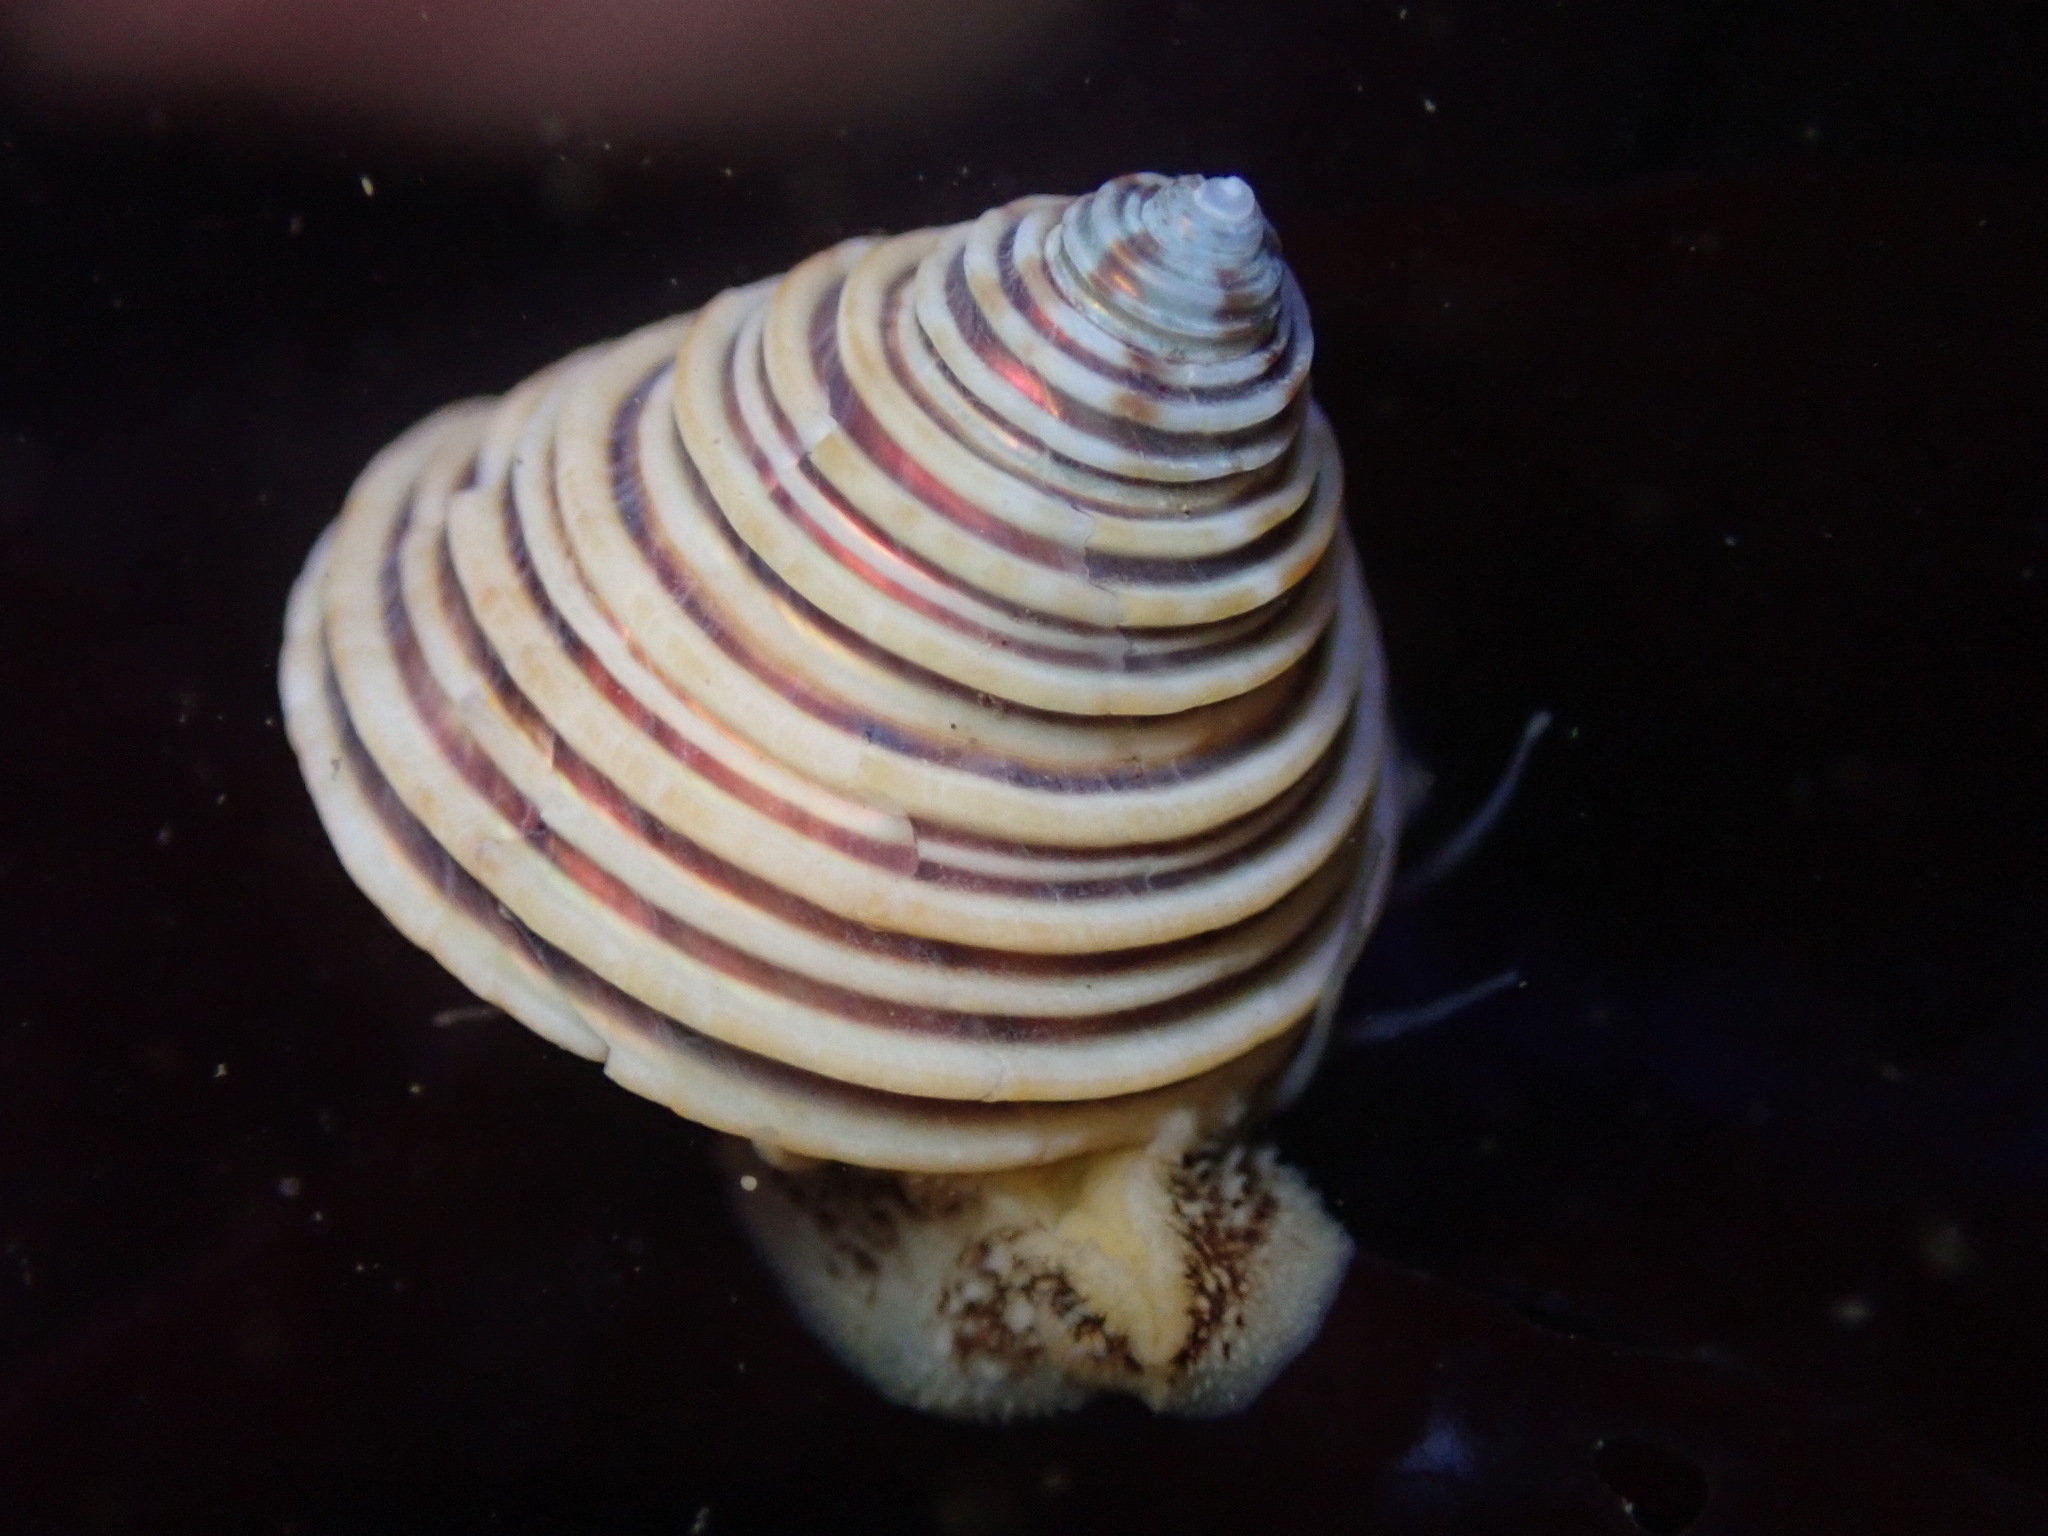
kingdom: Animalia
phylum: Mollusca
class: Gastropoda
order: Trochida
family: Calliostomatidae
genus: Calliostoma
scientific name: Calliostoma canaliculatum
